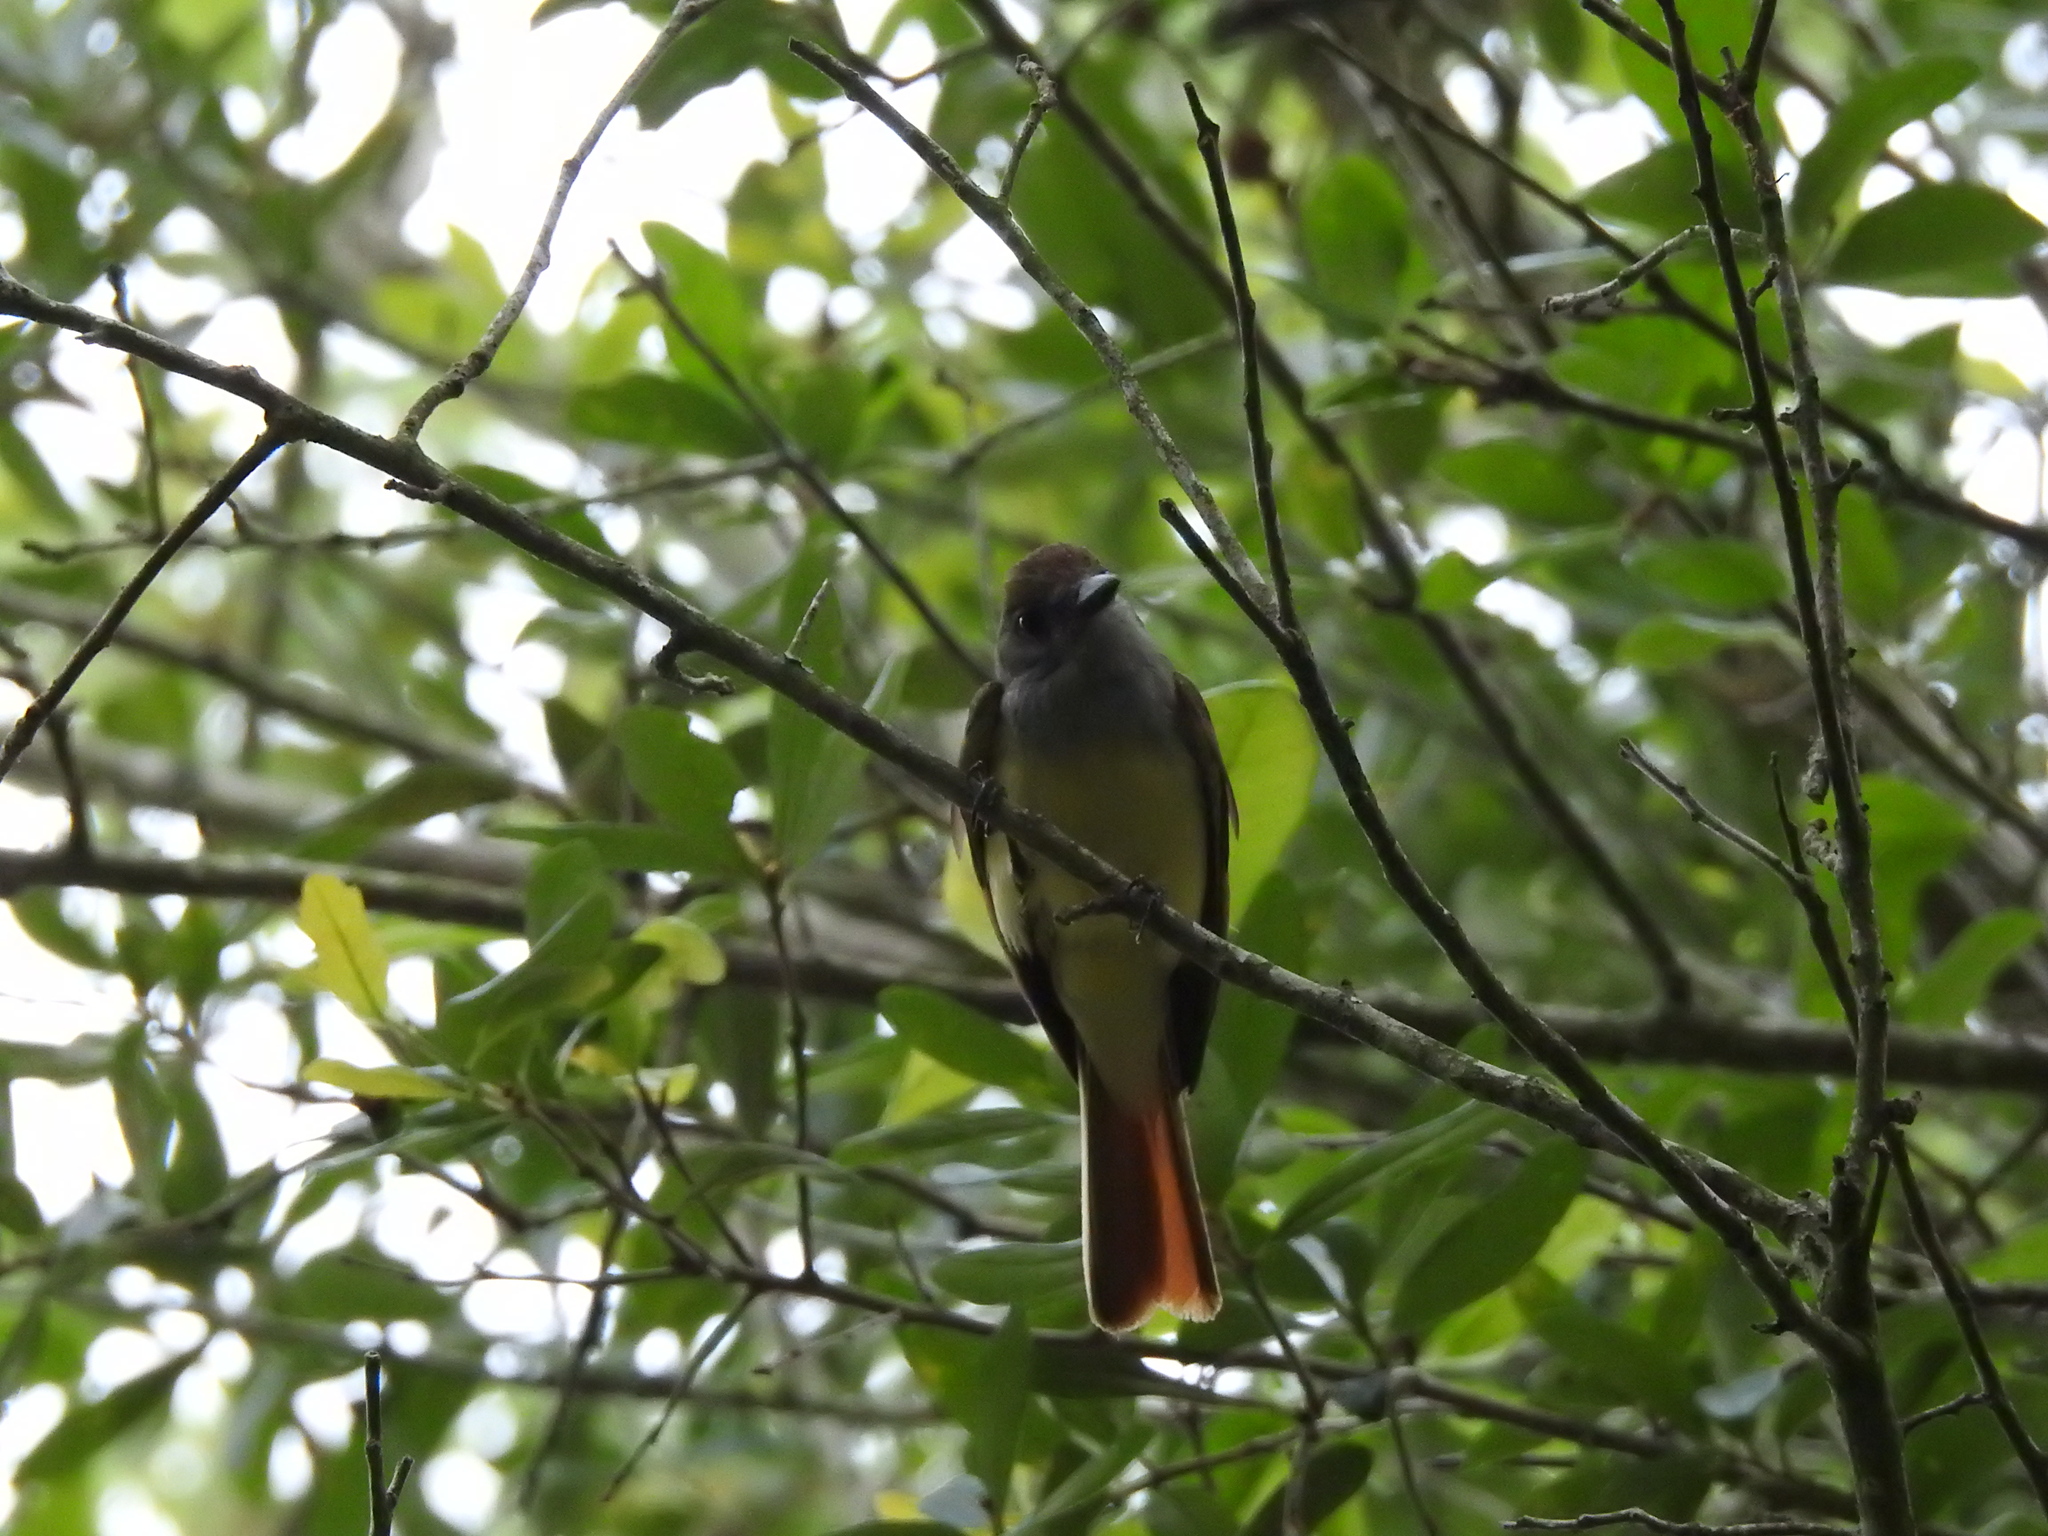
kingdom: Animalia
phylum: Chordata
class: Aves
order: Passeriformes
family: Tyrannidae
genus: Myiarchus
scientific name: Myiarchus crinitus
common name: Great crested flycatcher
